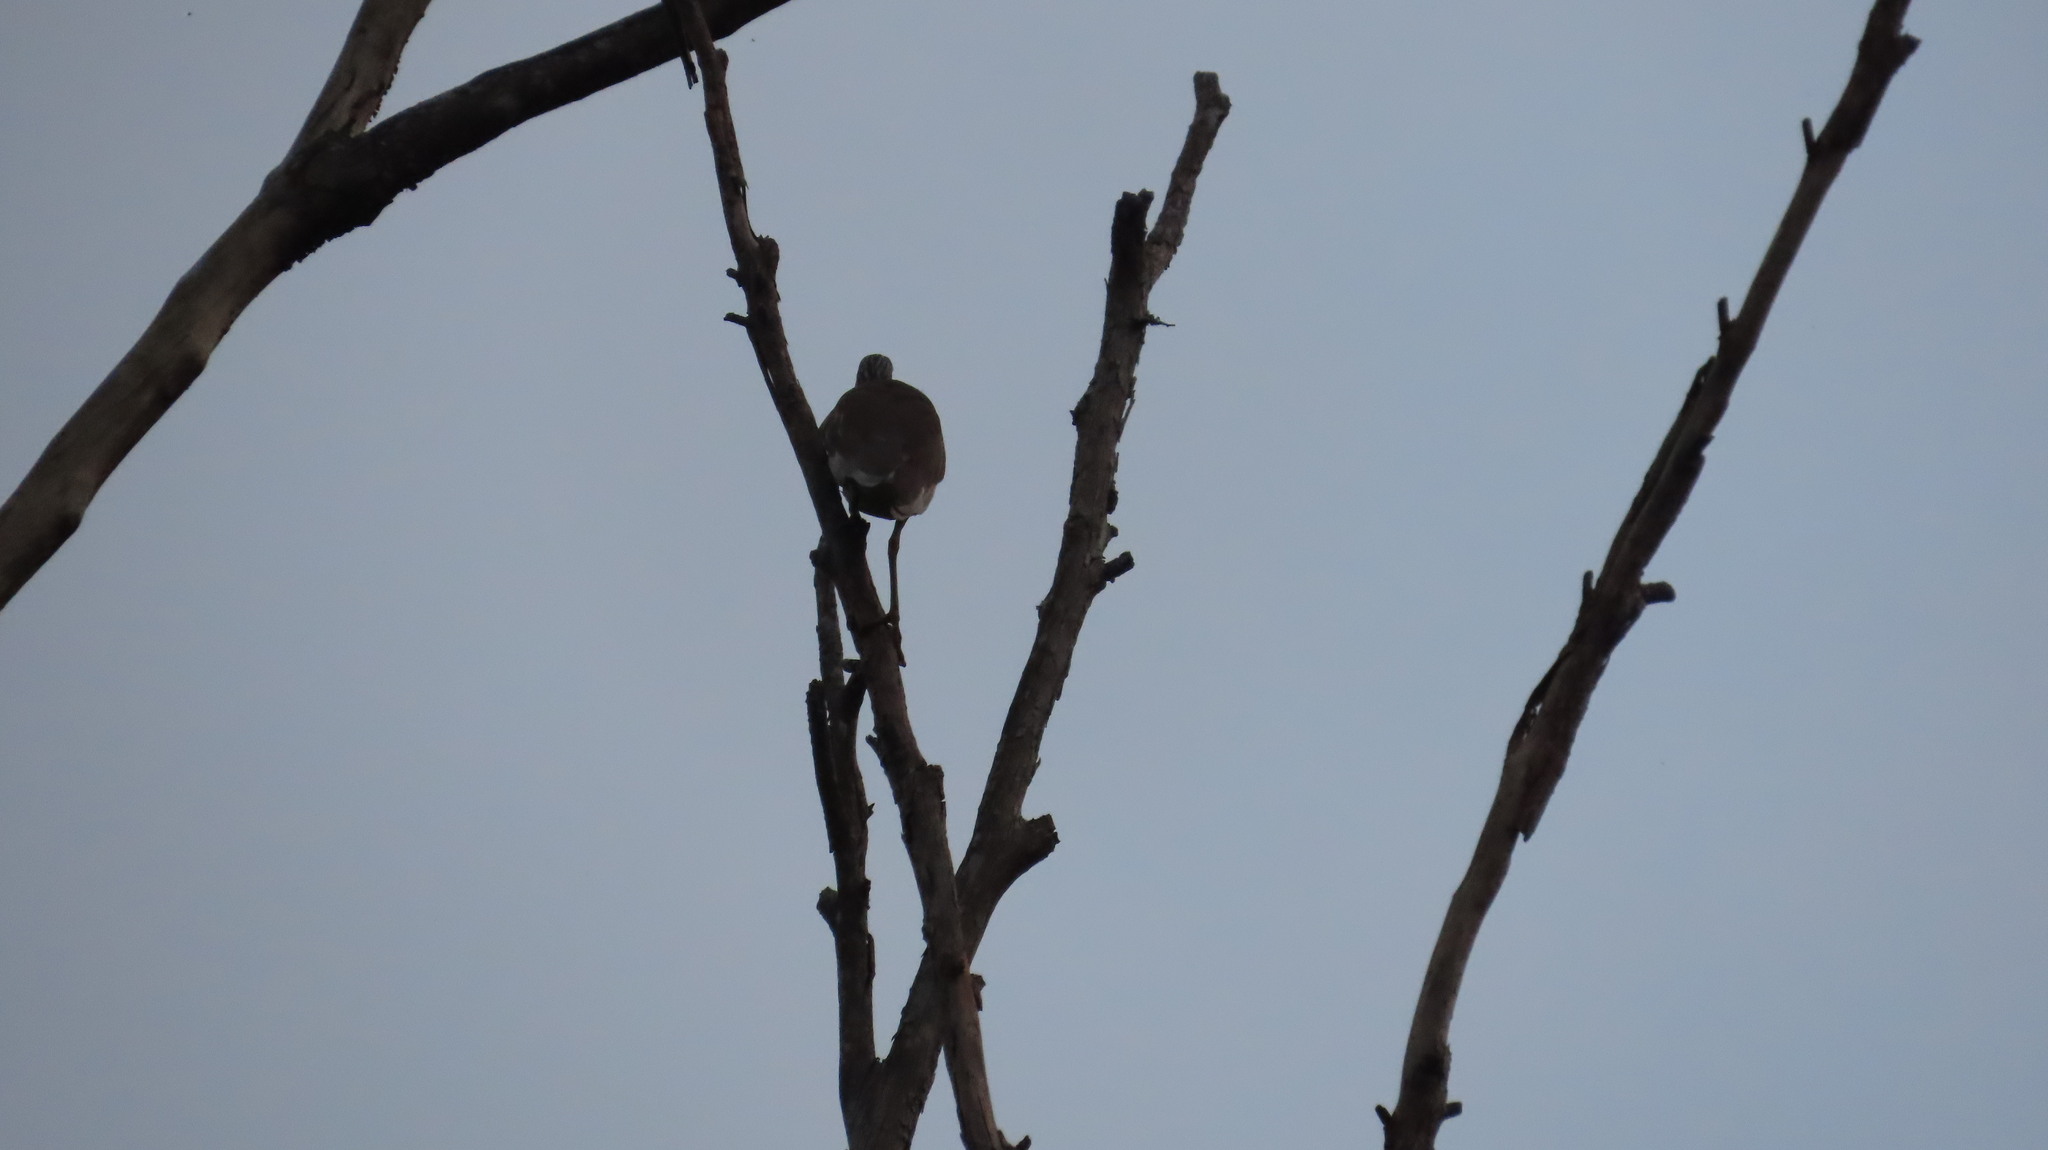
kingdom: Animalia
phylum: Chordata
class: Aves
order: Pelecaniformes
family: Ardeidae
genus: Ardeola
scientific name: Ardeola grayii
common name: Indian pond heron
